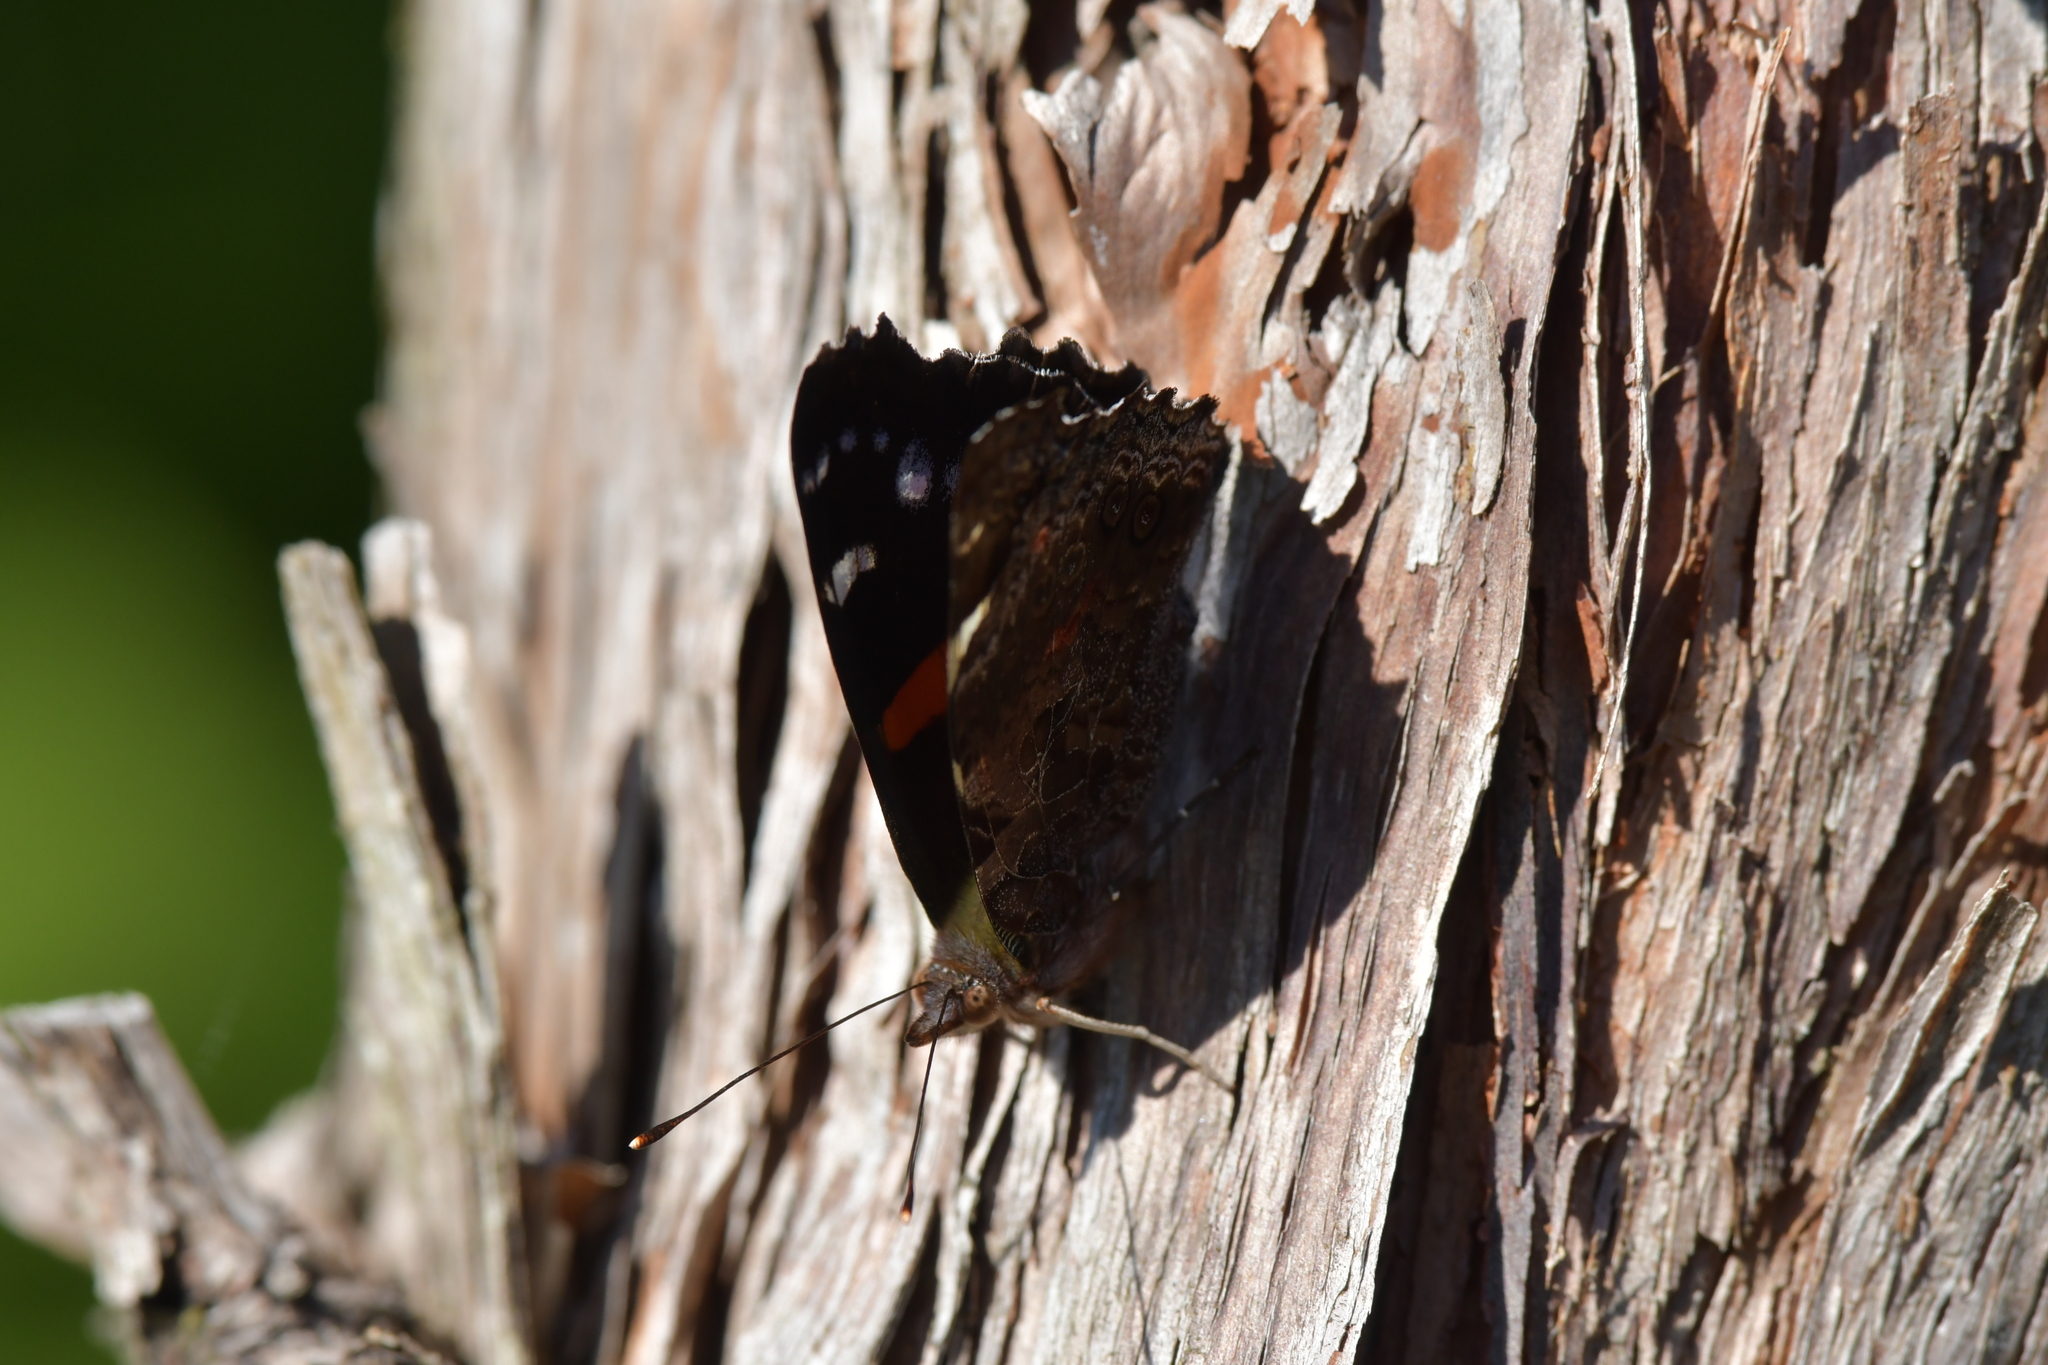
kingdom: Animalia
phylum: Arthropoda
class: Insecta
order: Lepidoptera
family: Nymphalidae
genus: Vanessa
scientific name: Vanessa gonerilla
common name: New zealand red admiral
